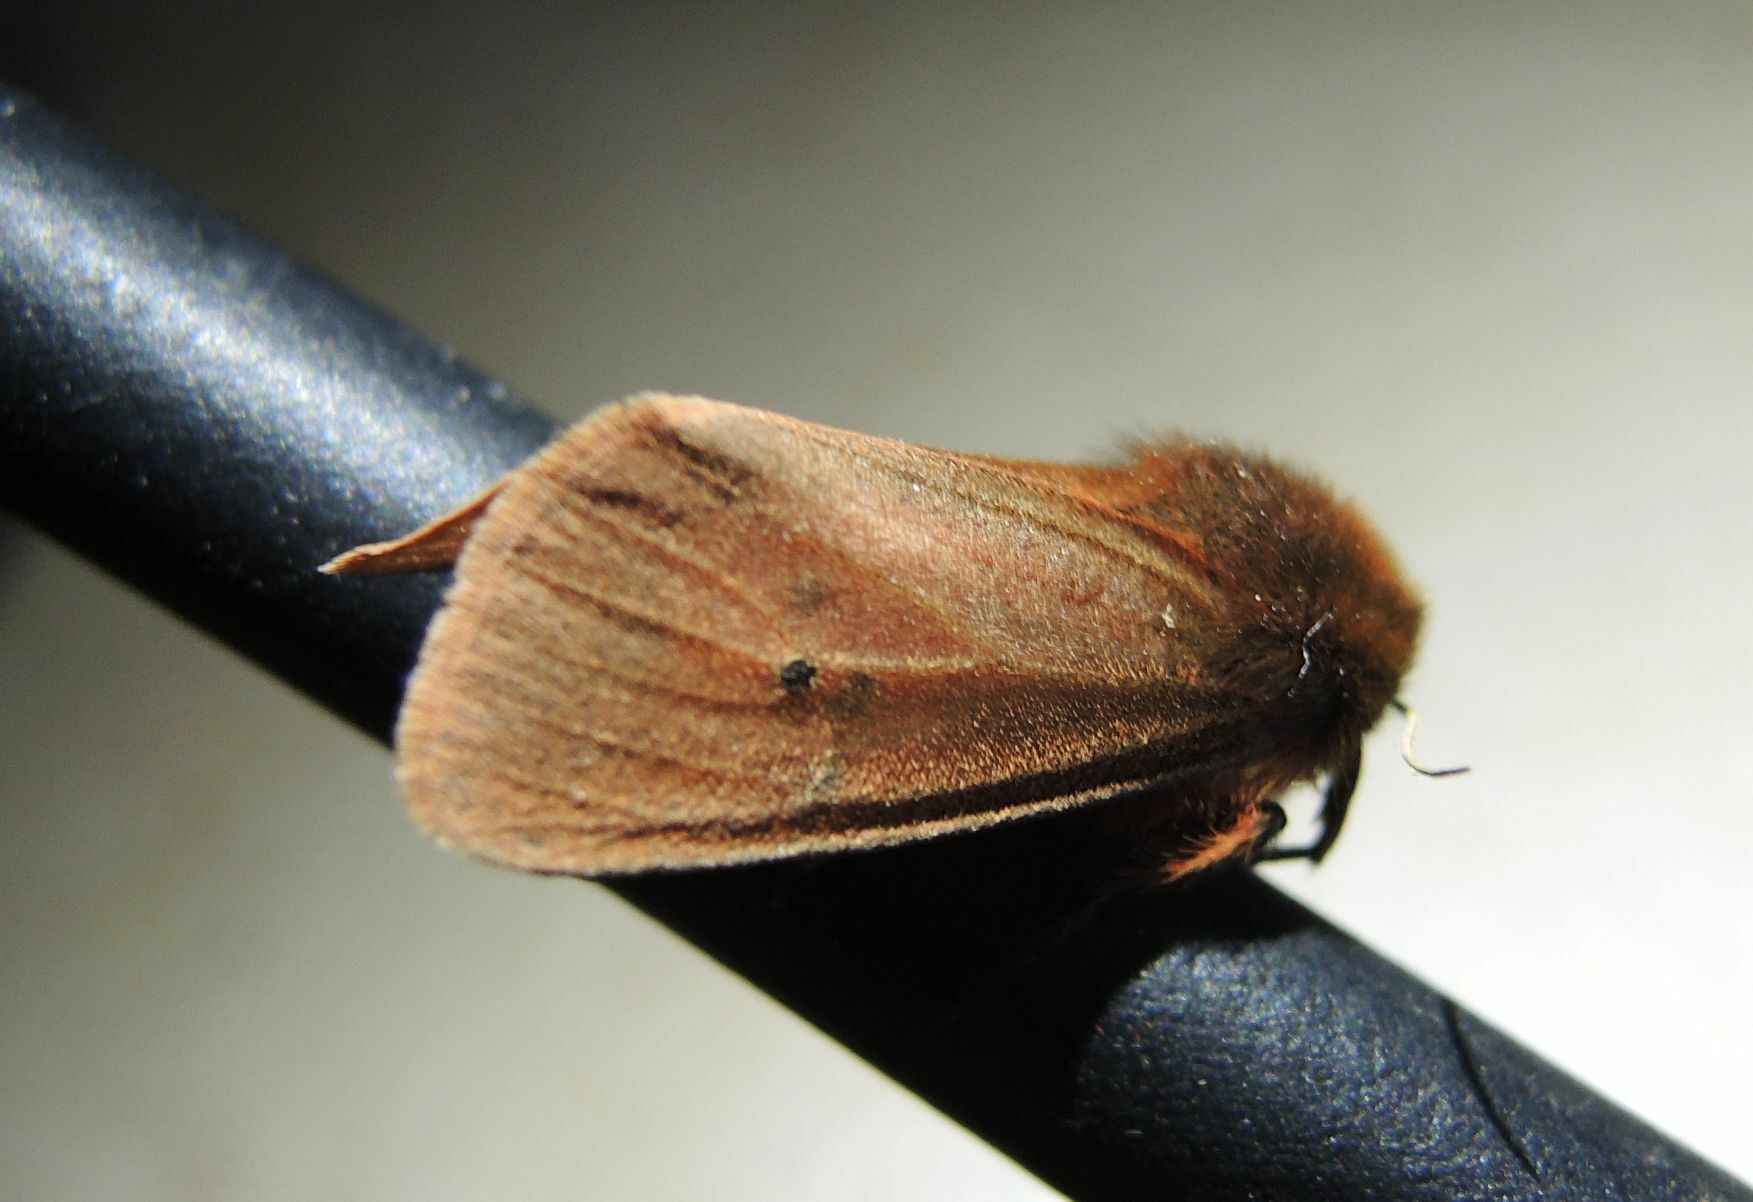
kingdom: Animalia
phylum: Arthropoda
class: Insecta
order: Lepidoptera
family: Erebidae
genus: Phragmatobia
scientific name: Phragmatobia fuliginosa
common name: Ruby tiger
